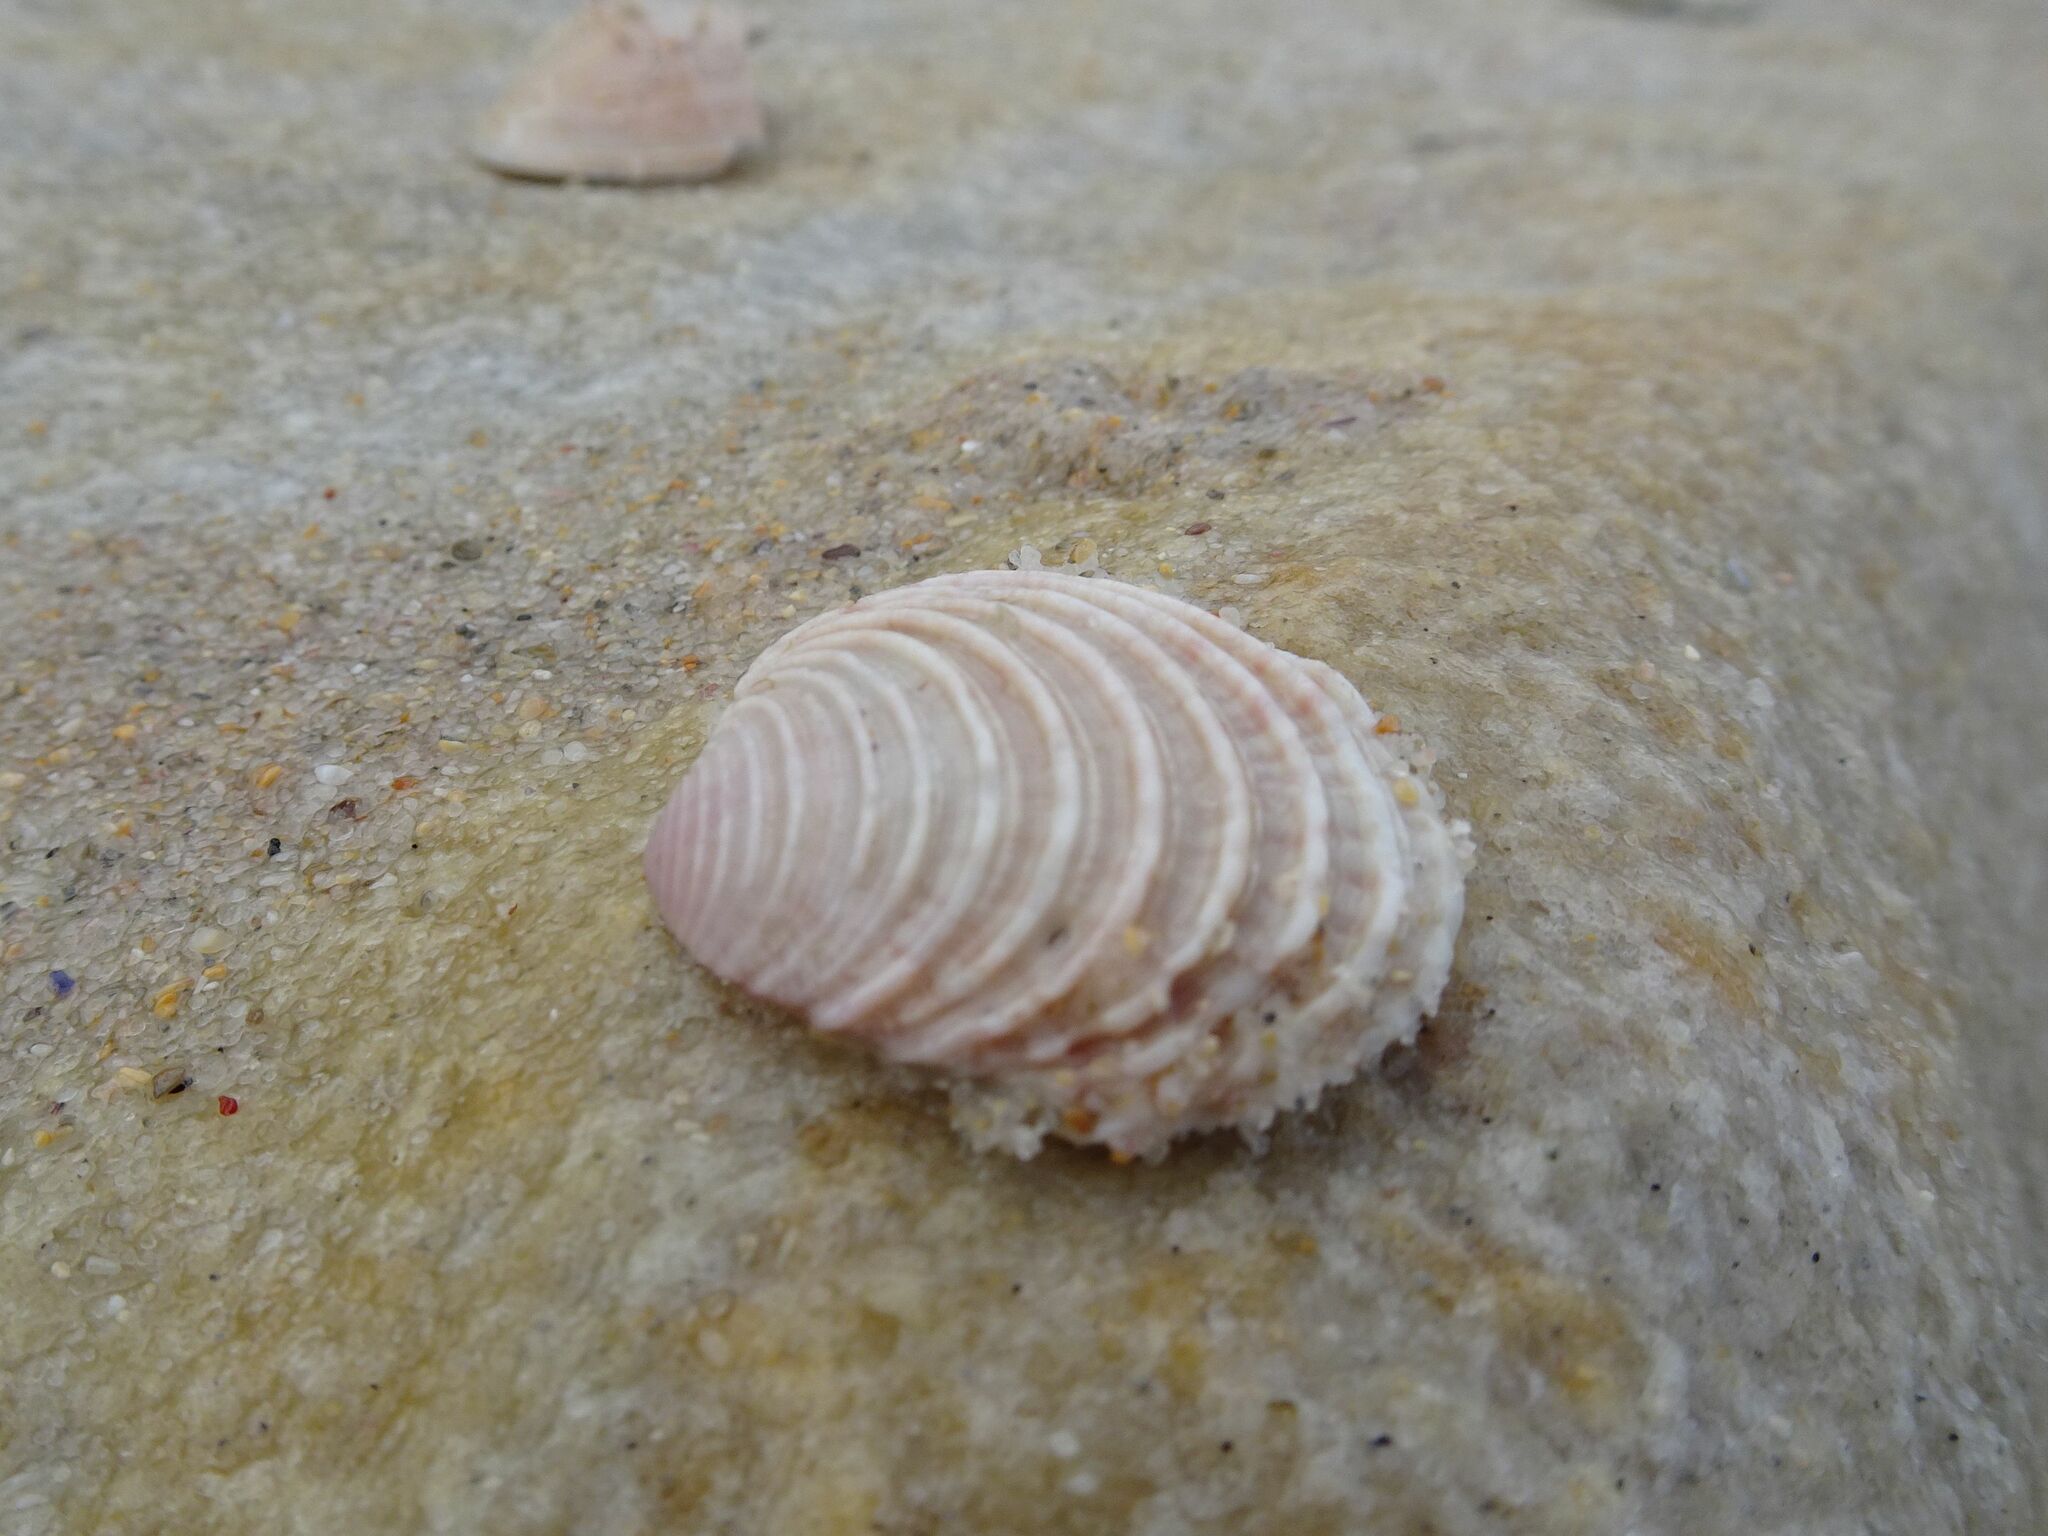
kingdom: Animalia
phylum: Mollusca
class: Bivalvia
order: Venerida
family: Veneridae
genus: Venus
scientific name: Venus verrucosa
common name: Warty venus
